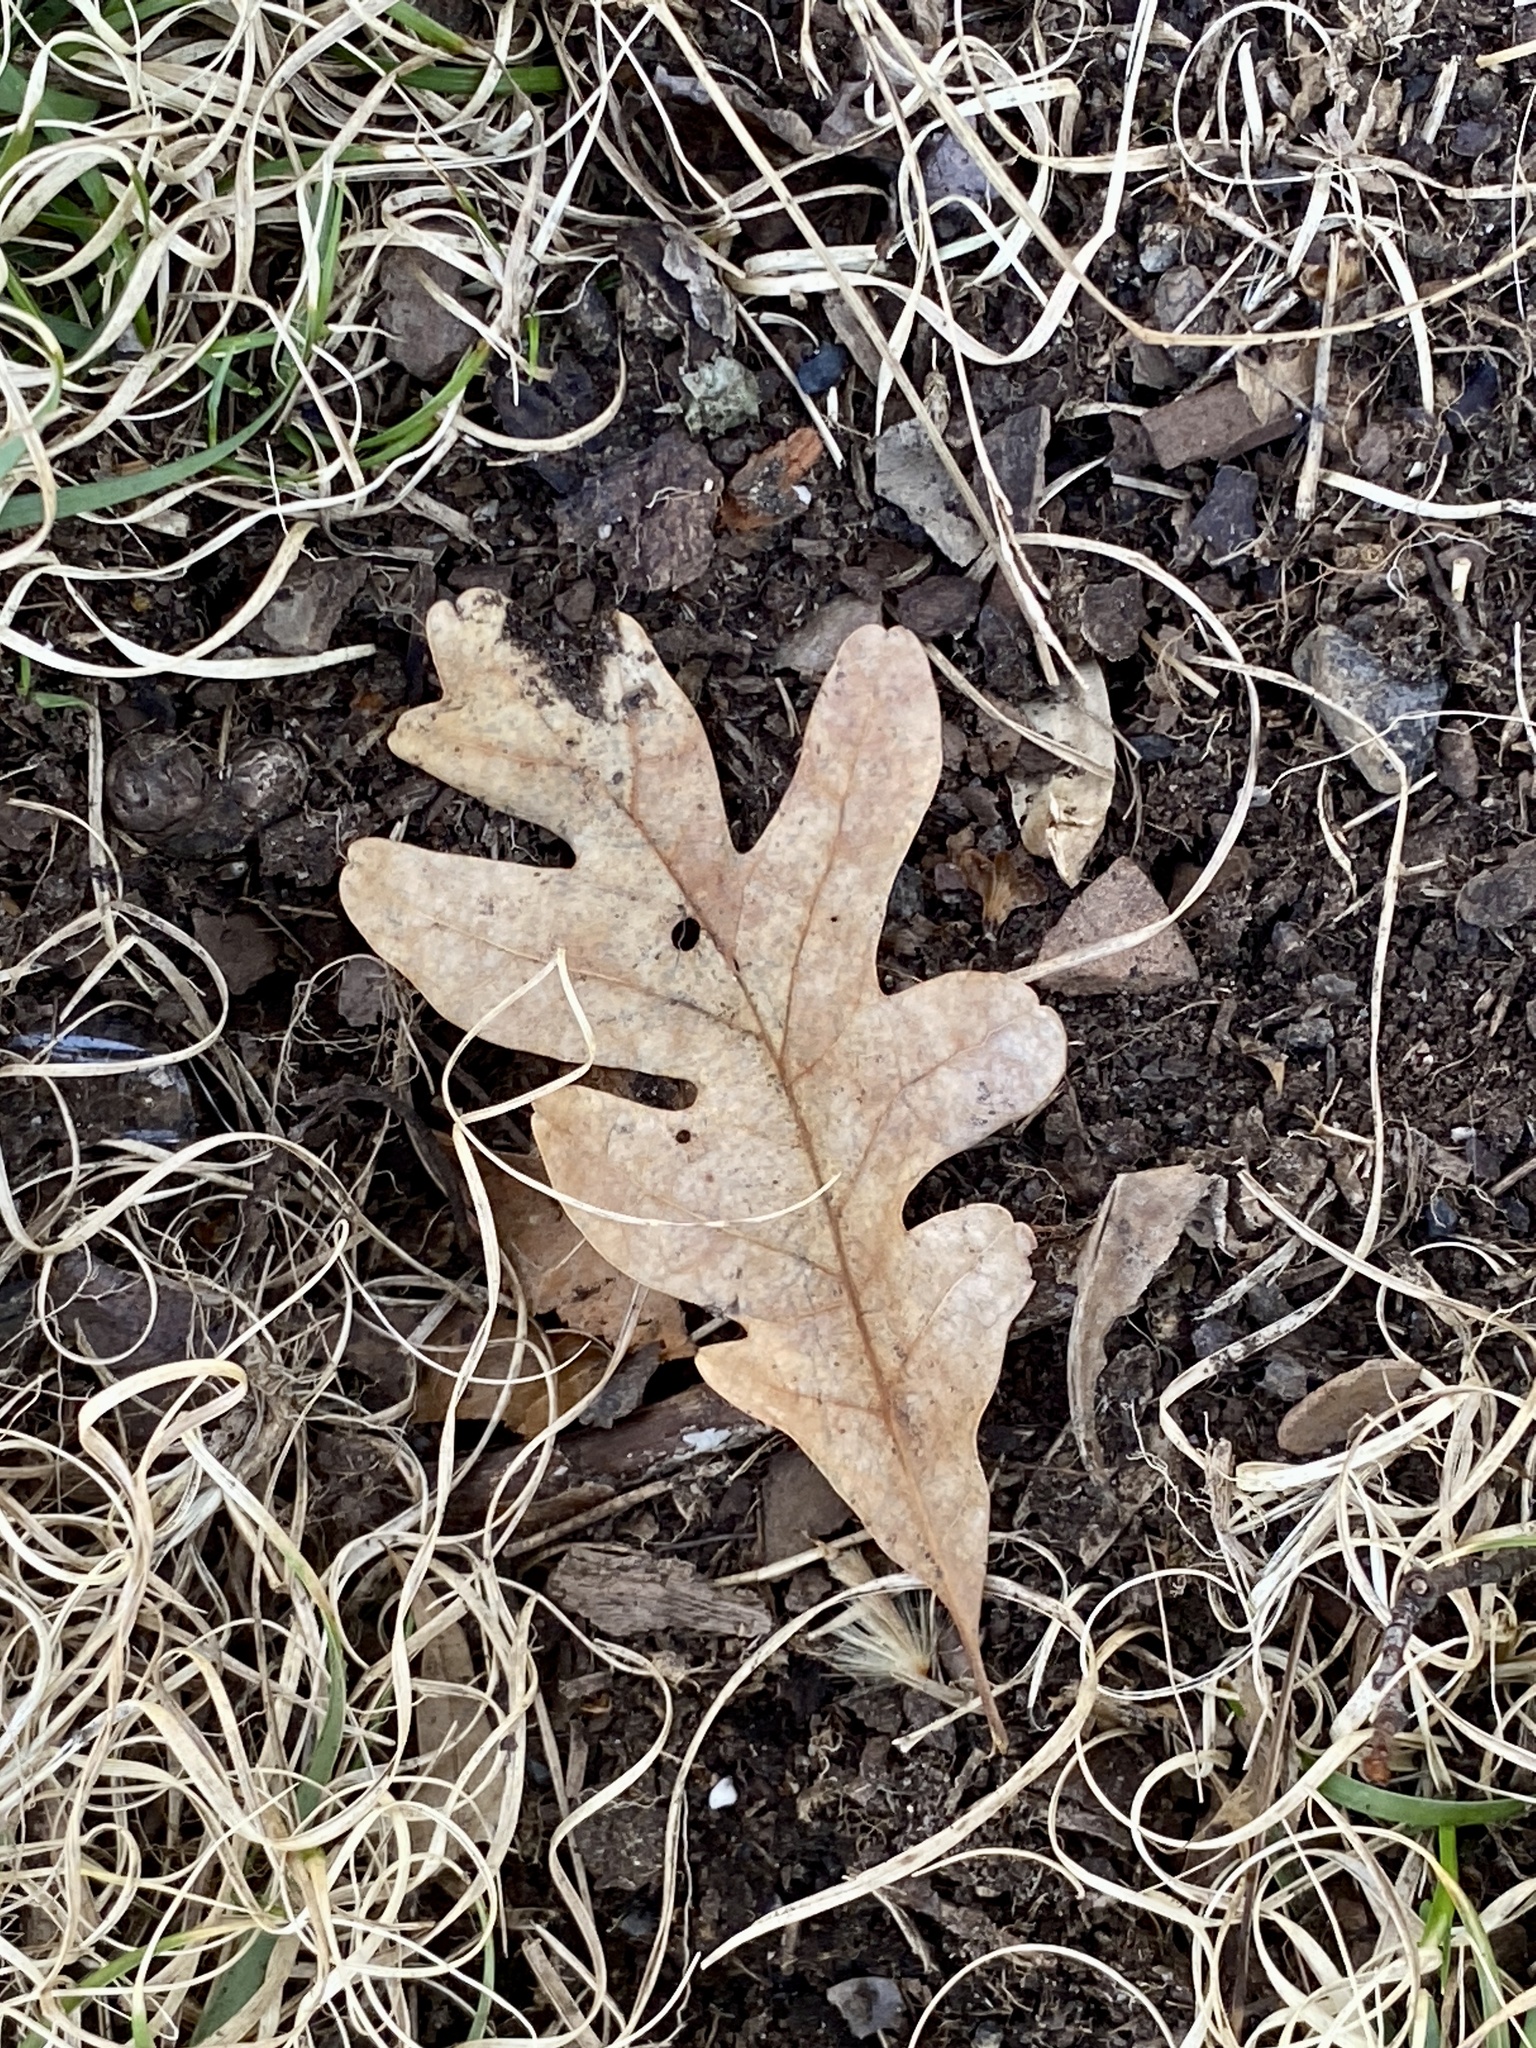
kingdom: Plantae
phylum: Tracheophyta
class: Magnoliopsida
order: Fagales
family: Fagaceae
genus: Quercus
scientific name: Quercus alba
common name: White oak
